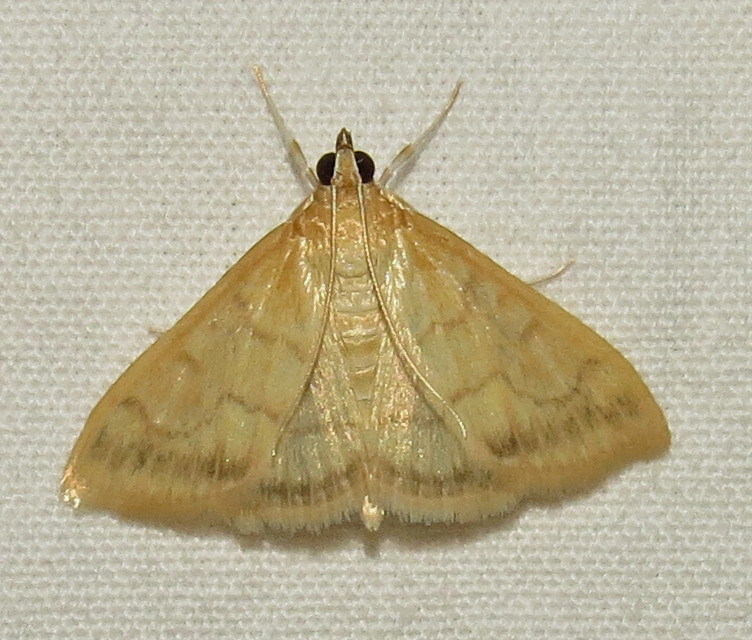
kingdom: Animalia
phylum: Arthropoda
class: Insecta
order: Lepidoptera
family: Crambidae
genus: Hahncappsia
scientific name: Hahncappsia mancalis
